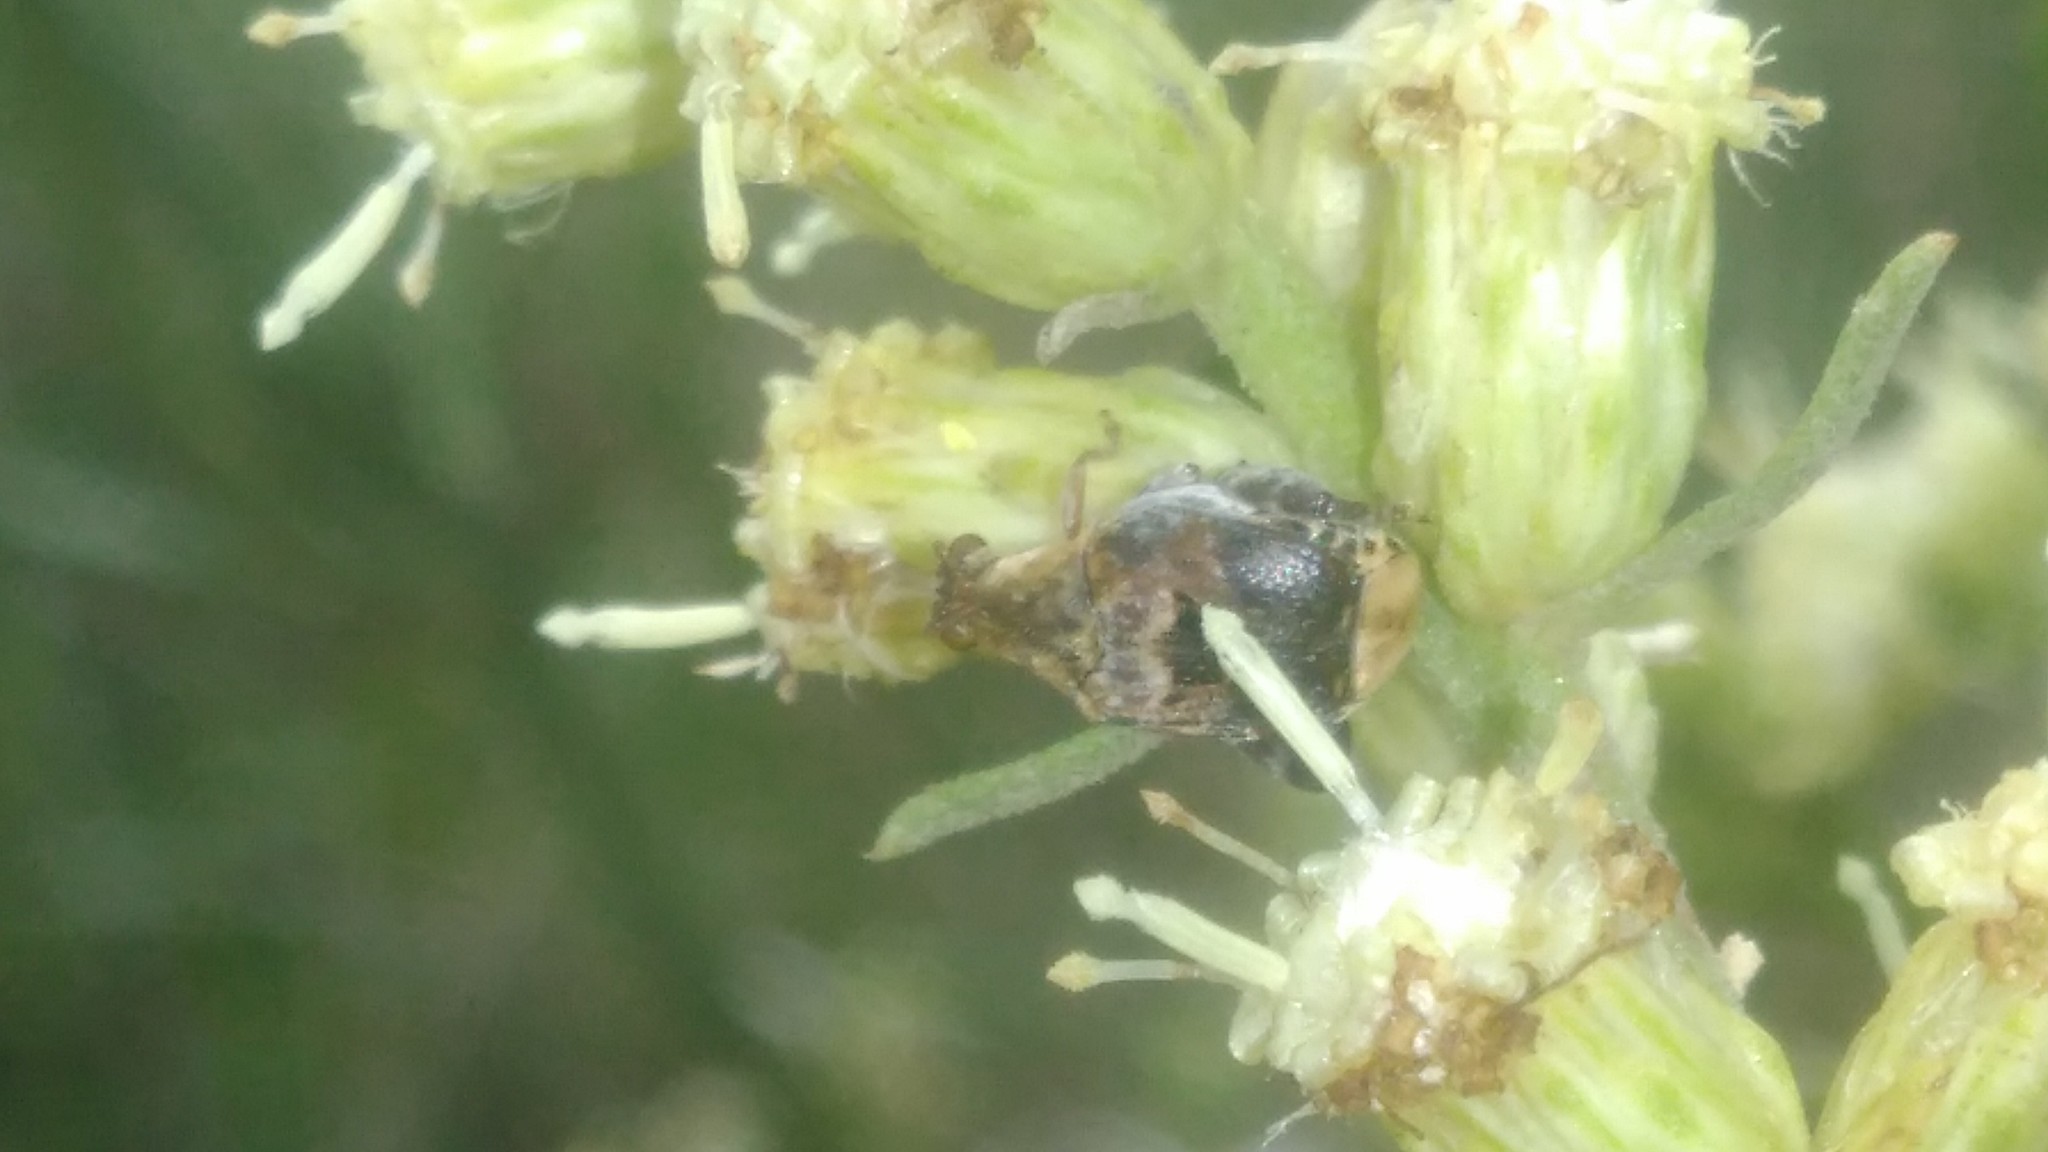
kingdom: Animalia
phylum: Arthropoda
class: Insecta
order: Coleoptera
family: Chrysomelidae
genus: Penthobruchus
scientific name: Penthobruchus
